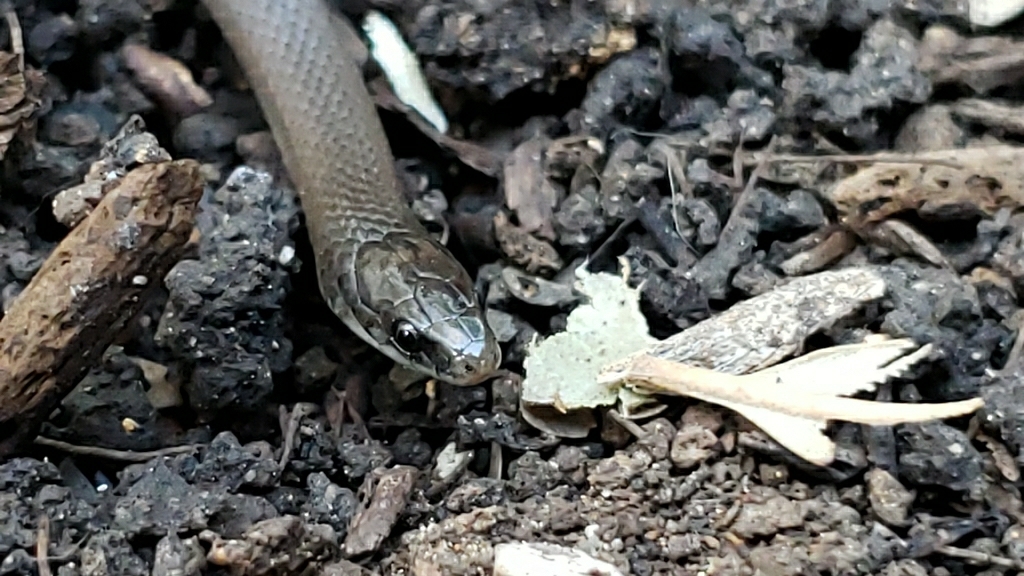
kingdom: Animalia
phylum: Chordata
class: Squamata
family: Colubridae
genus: Haldea
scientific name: Haldea striatula
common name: Rough earth snake
